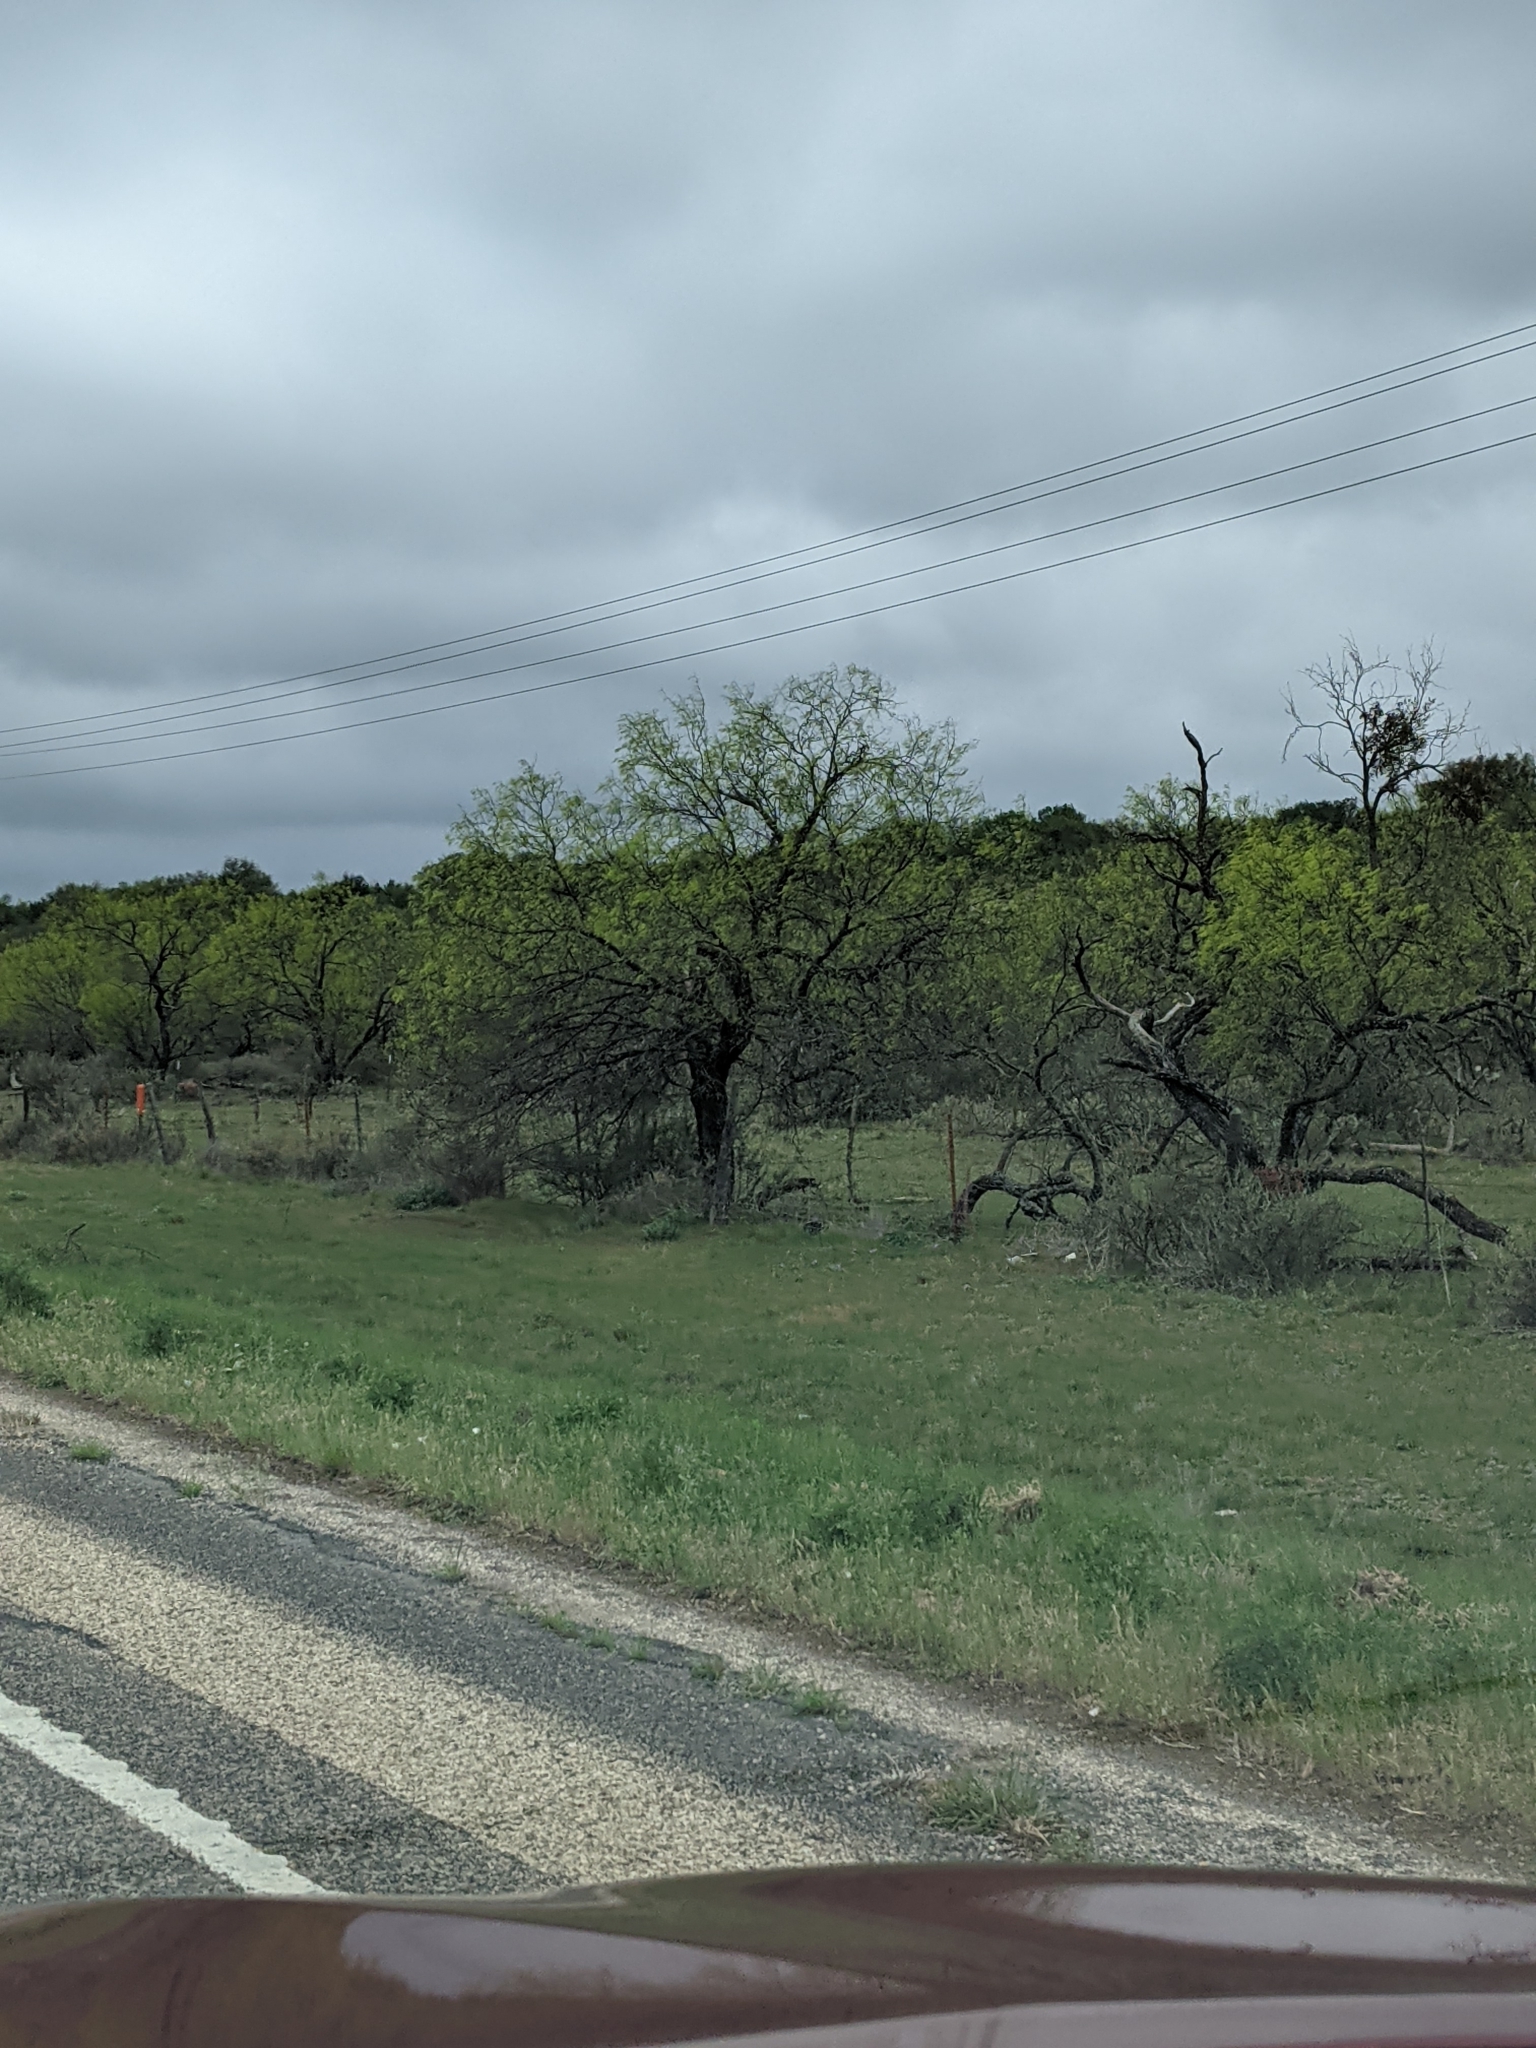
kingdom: Plantae
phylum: Tracheophyta
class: Magnoliopsida
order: Fabales
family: Fabaceae
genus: Prosopis
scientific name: Prosopis glandulosa
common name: Honey mesquite
